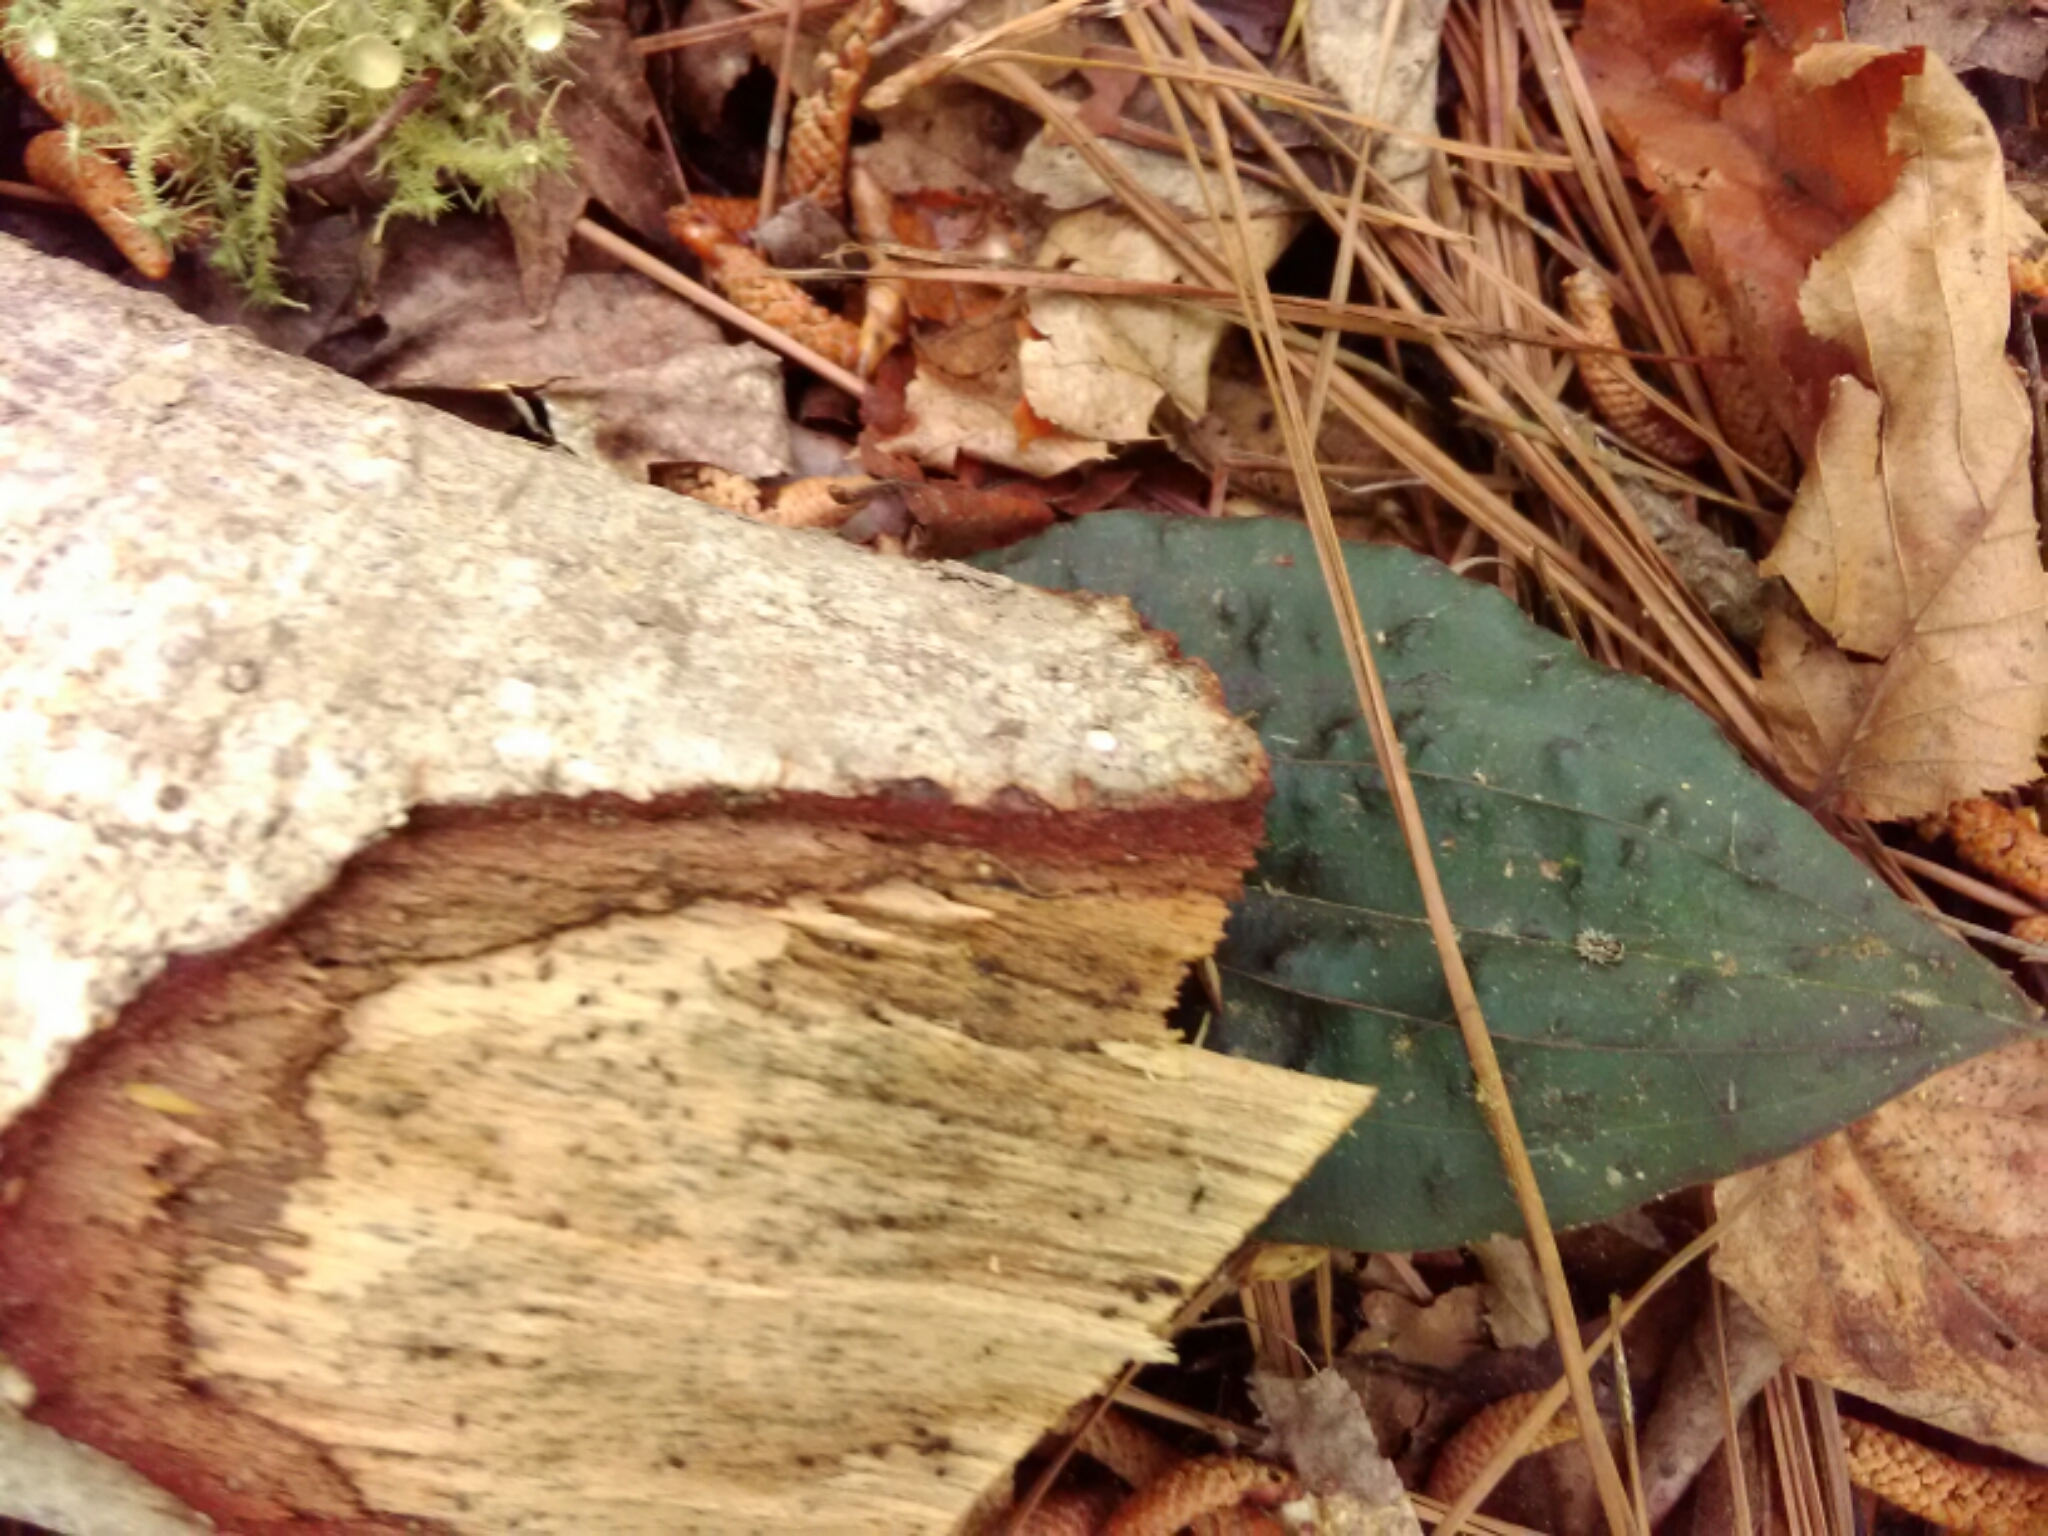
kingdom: Plantae
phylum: Tracheophyta
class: Liliopsida
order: Asparagales
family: Orchidaceae
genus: Tipularia
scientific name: Tipularia discolor
